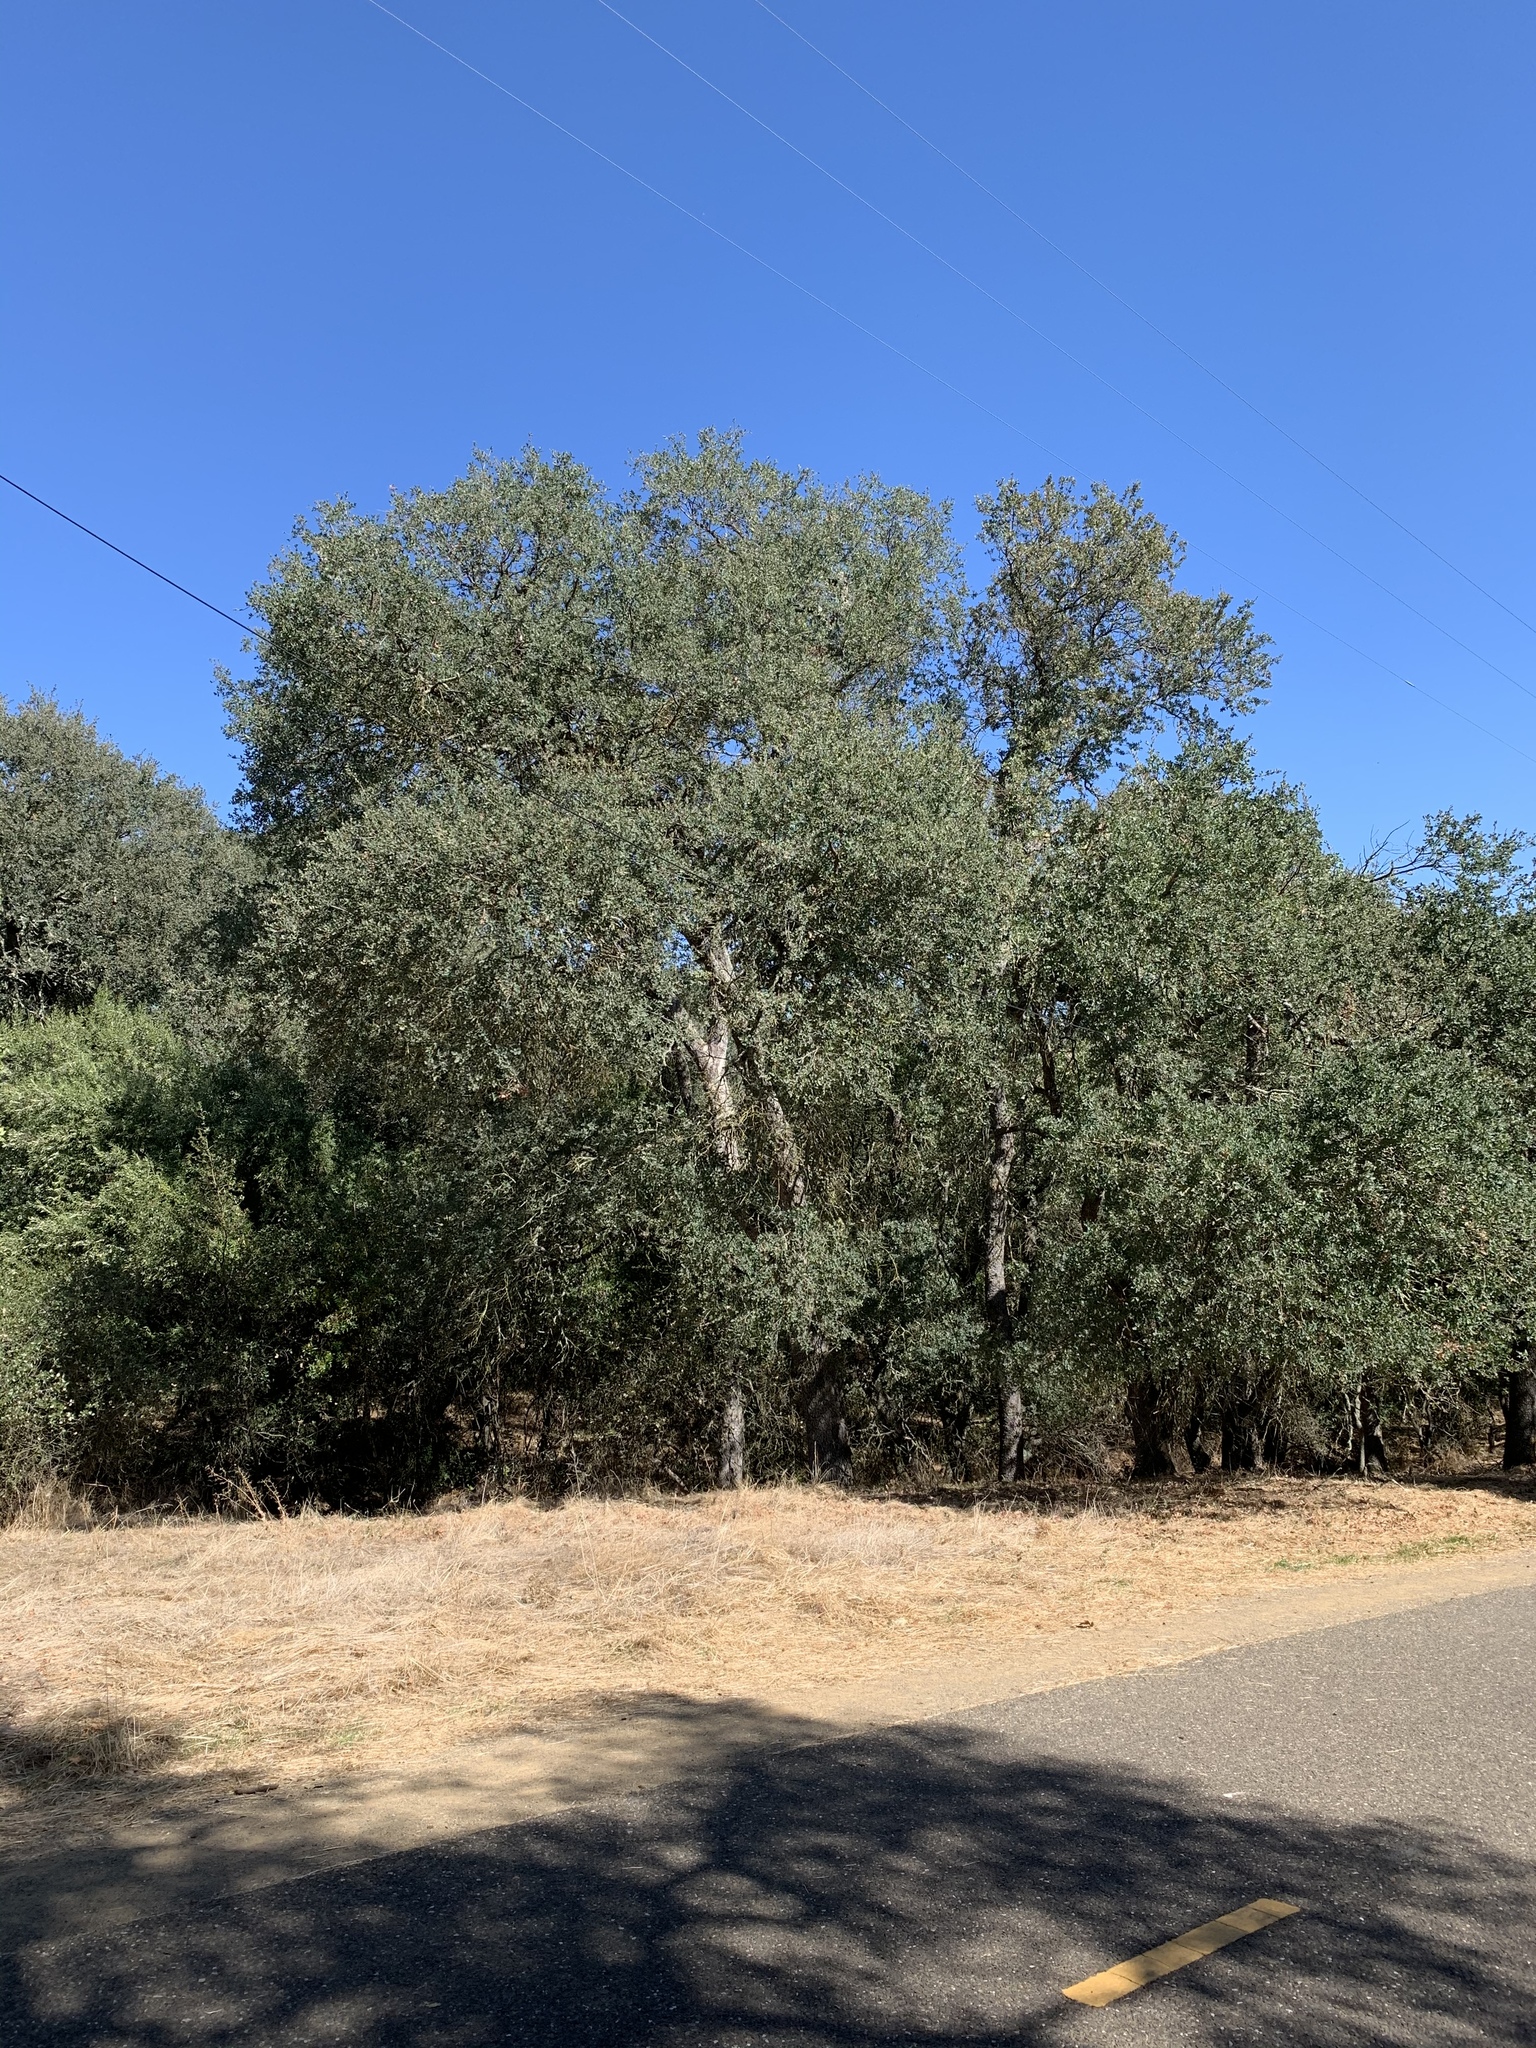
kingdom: Plantae
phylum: Tracheophyta
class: Magnoliopsida
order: Fagales
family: Fagaceae
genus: Quercus
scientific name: Quercus douglasii
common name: Blue oak
